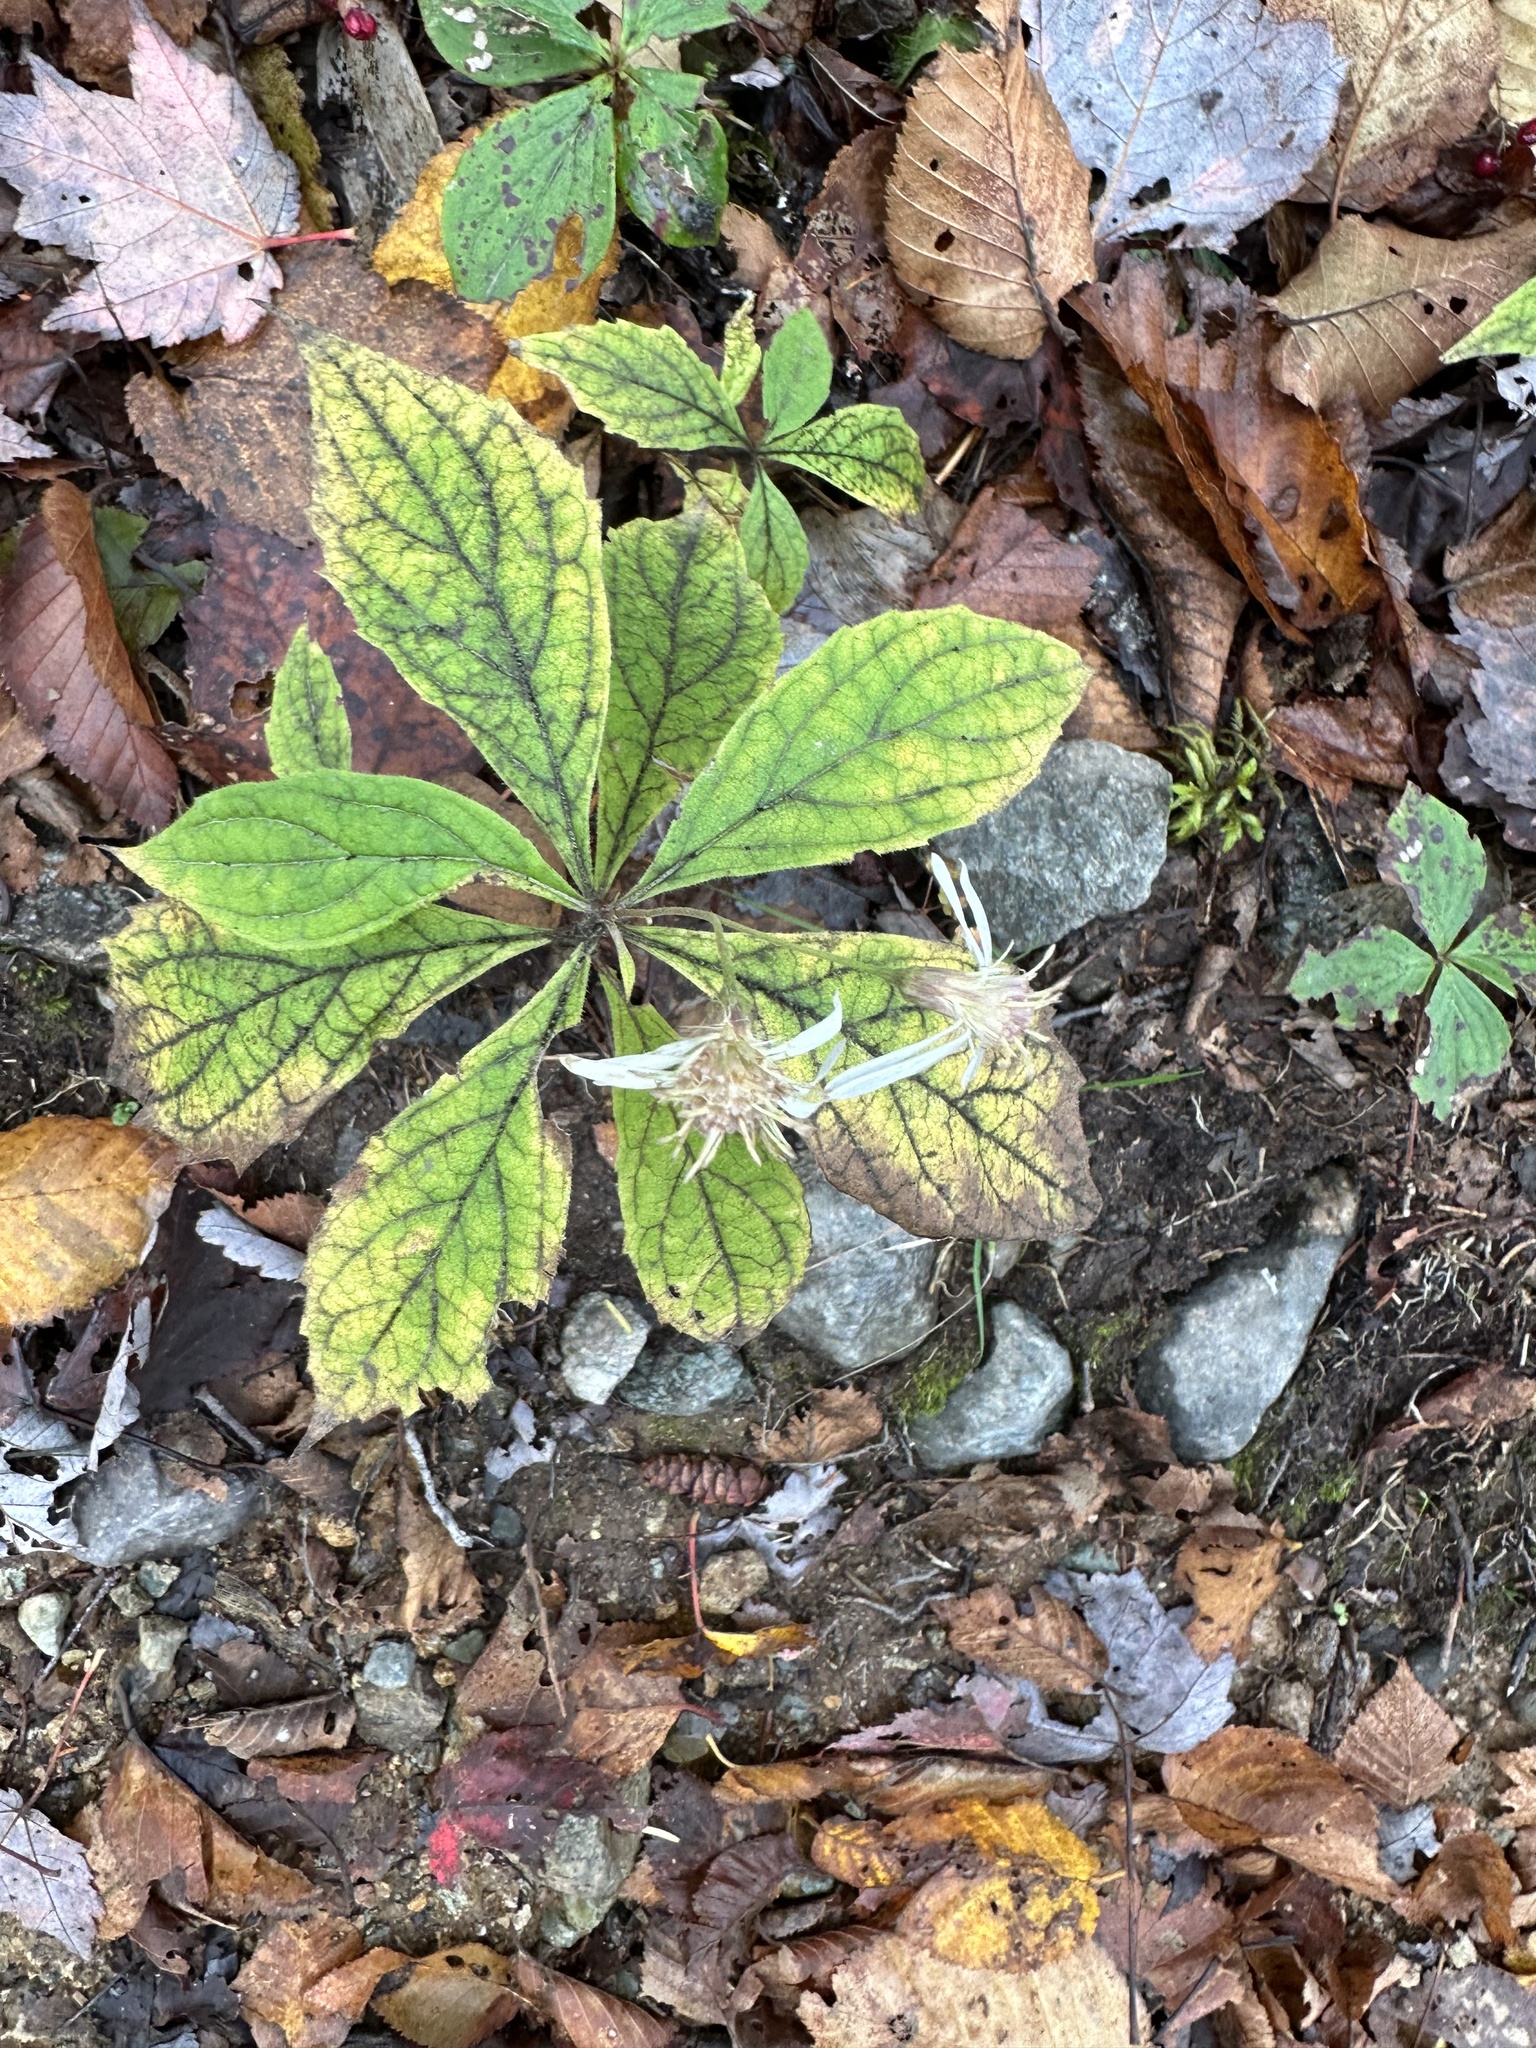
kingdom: Plantae
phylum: Tracheophyta
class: Magnoliopsida
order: Asterales
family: Asteraceae
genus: Oclemena
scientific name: Oclemena acuminata
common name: Mountain aster
